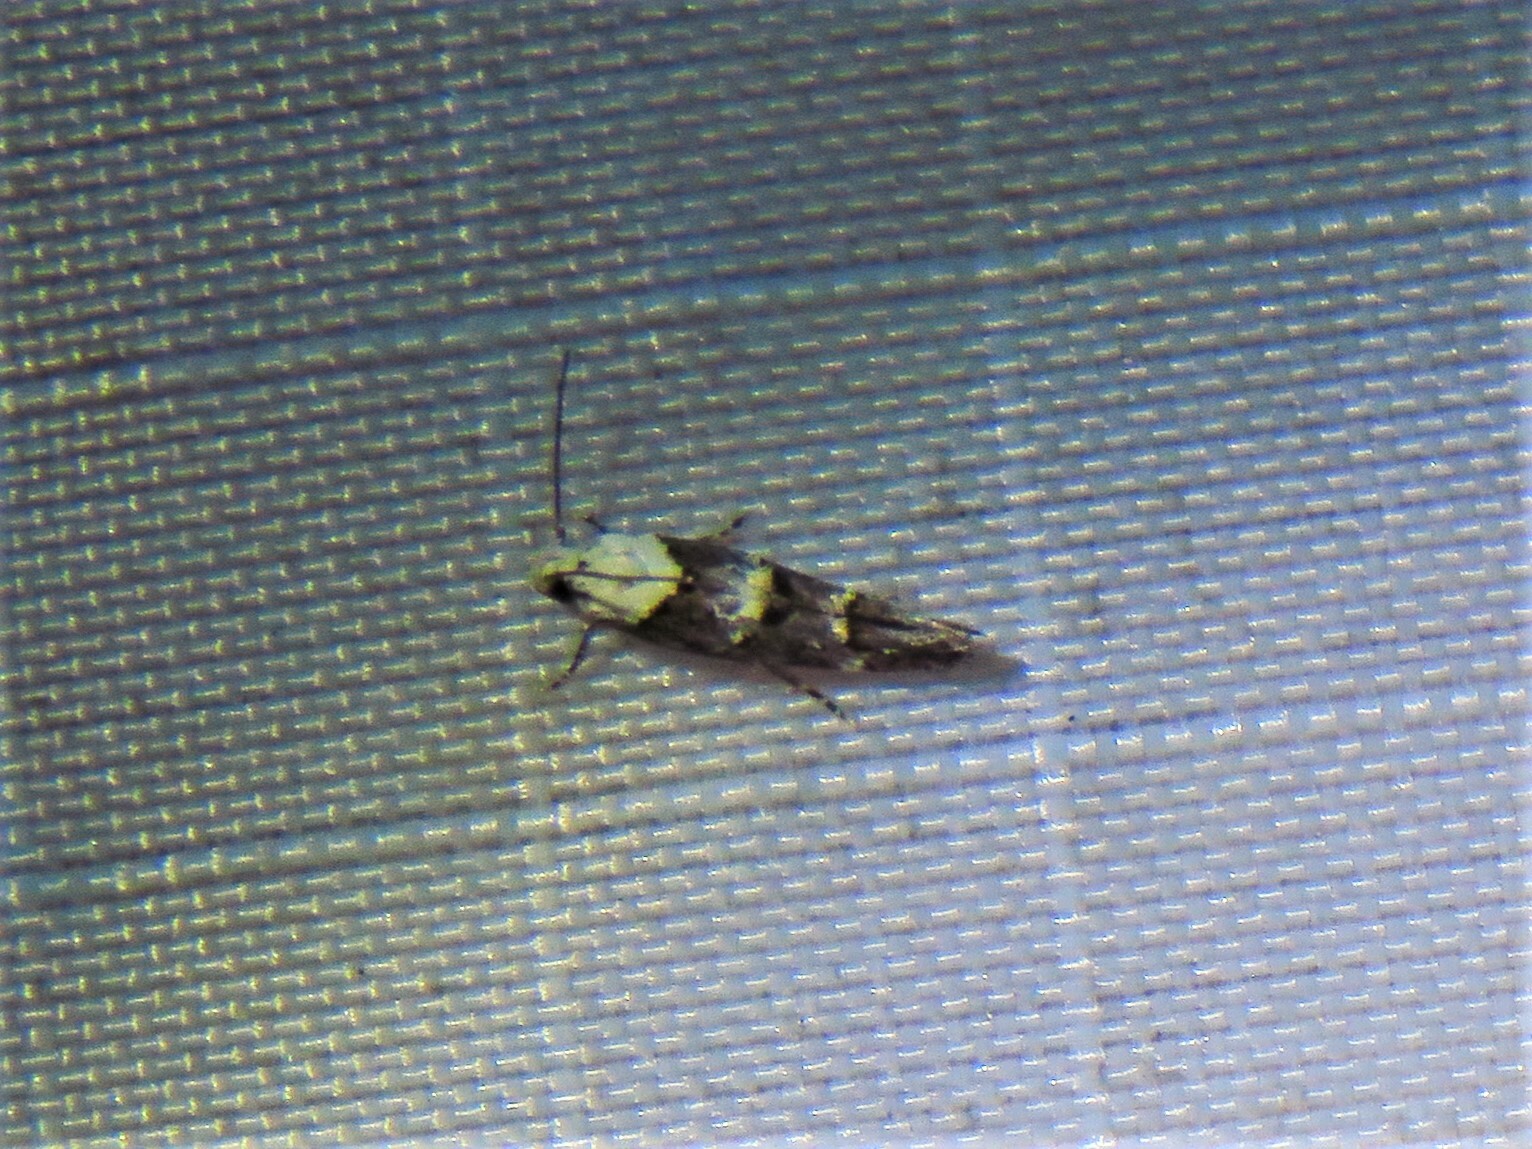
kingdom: Animalia
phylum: Arthropoda
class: Insecta
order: Lepidoptera
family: Momphidae
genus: Mompha
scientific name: Mompha albocapitella
